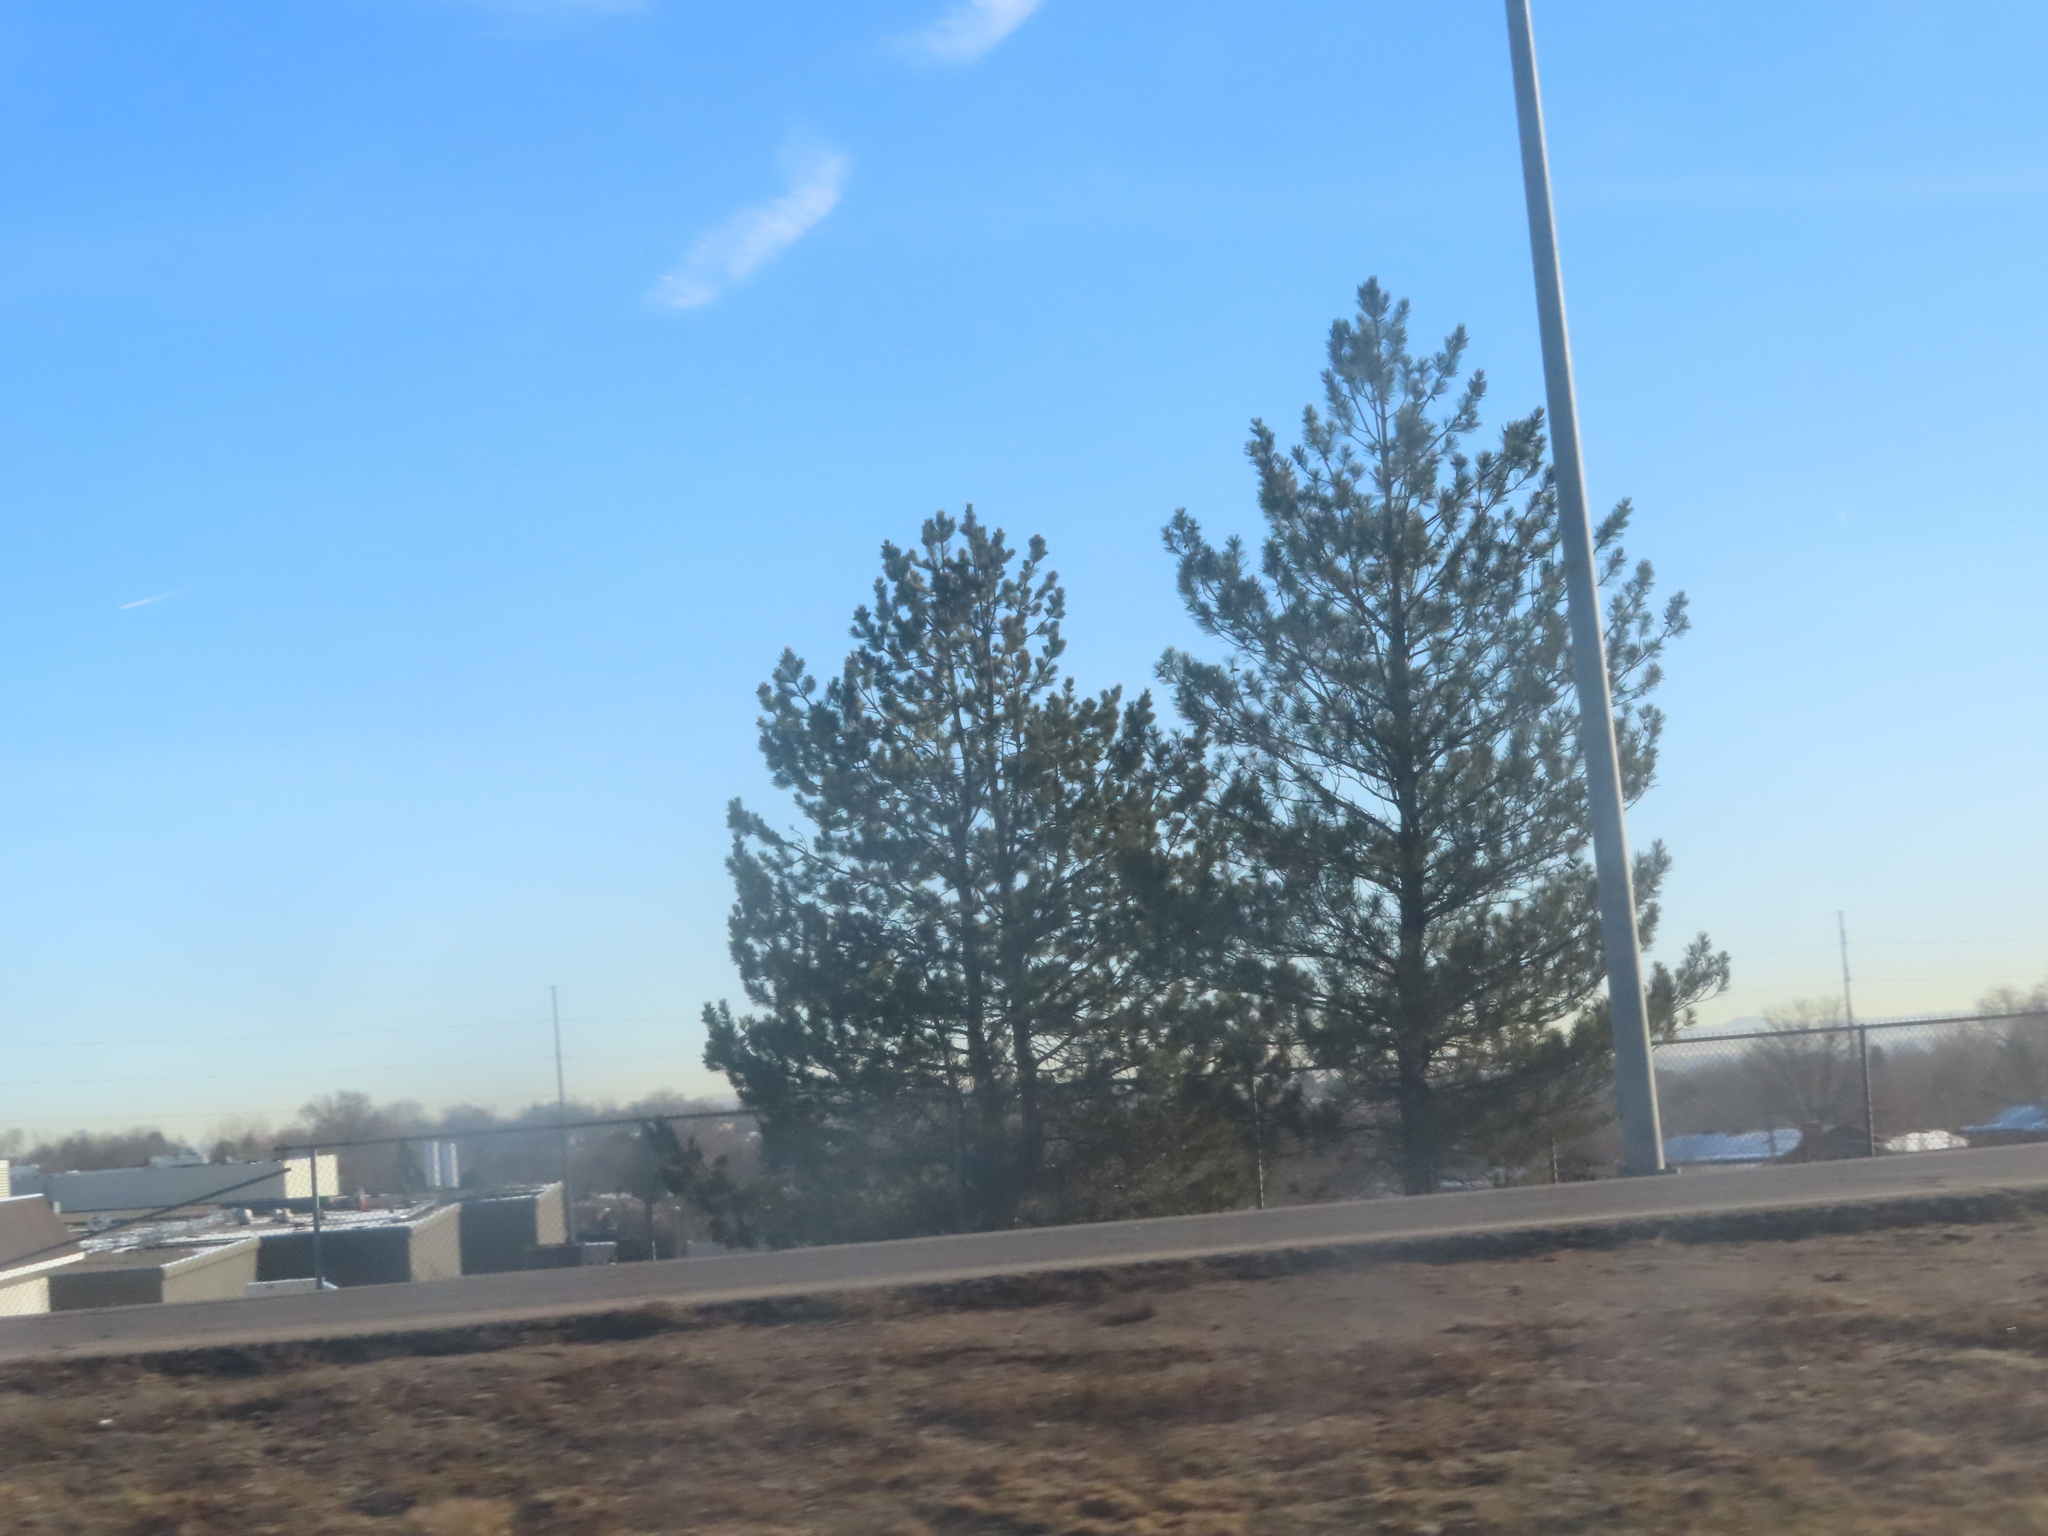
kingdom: Plantae
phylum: Tracheophyta
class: Pinopsida
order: Pinales
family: Pinaceae
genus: Pinus
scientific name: Pinus ponderosa
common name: Western yellow-pine
